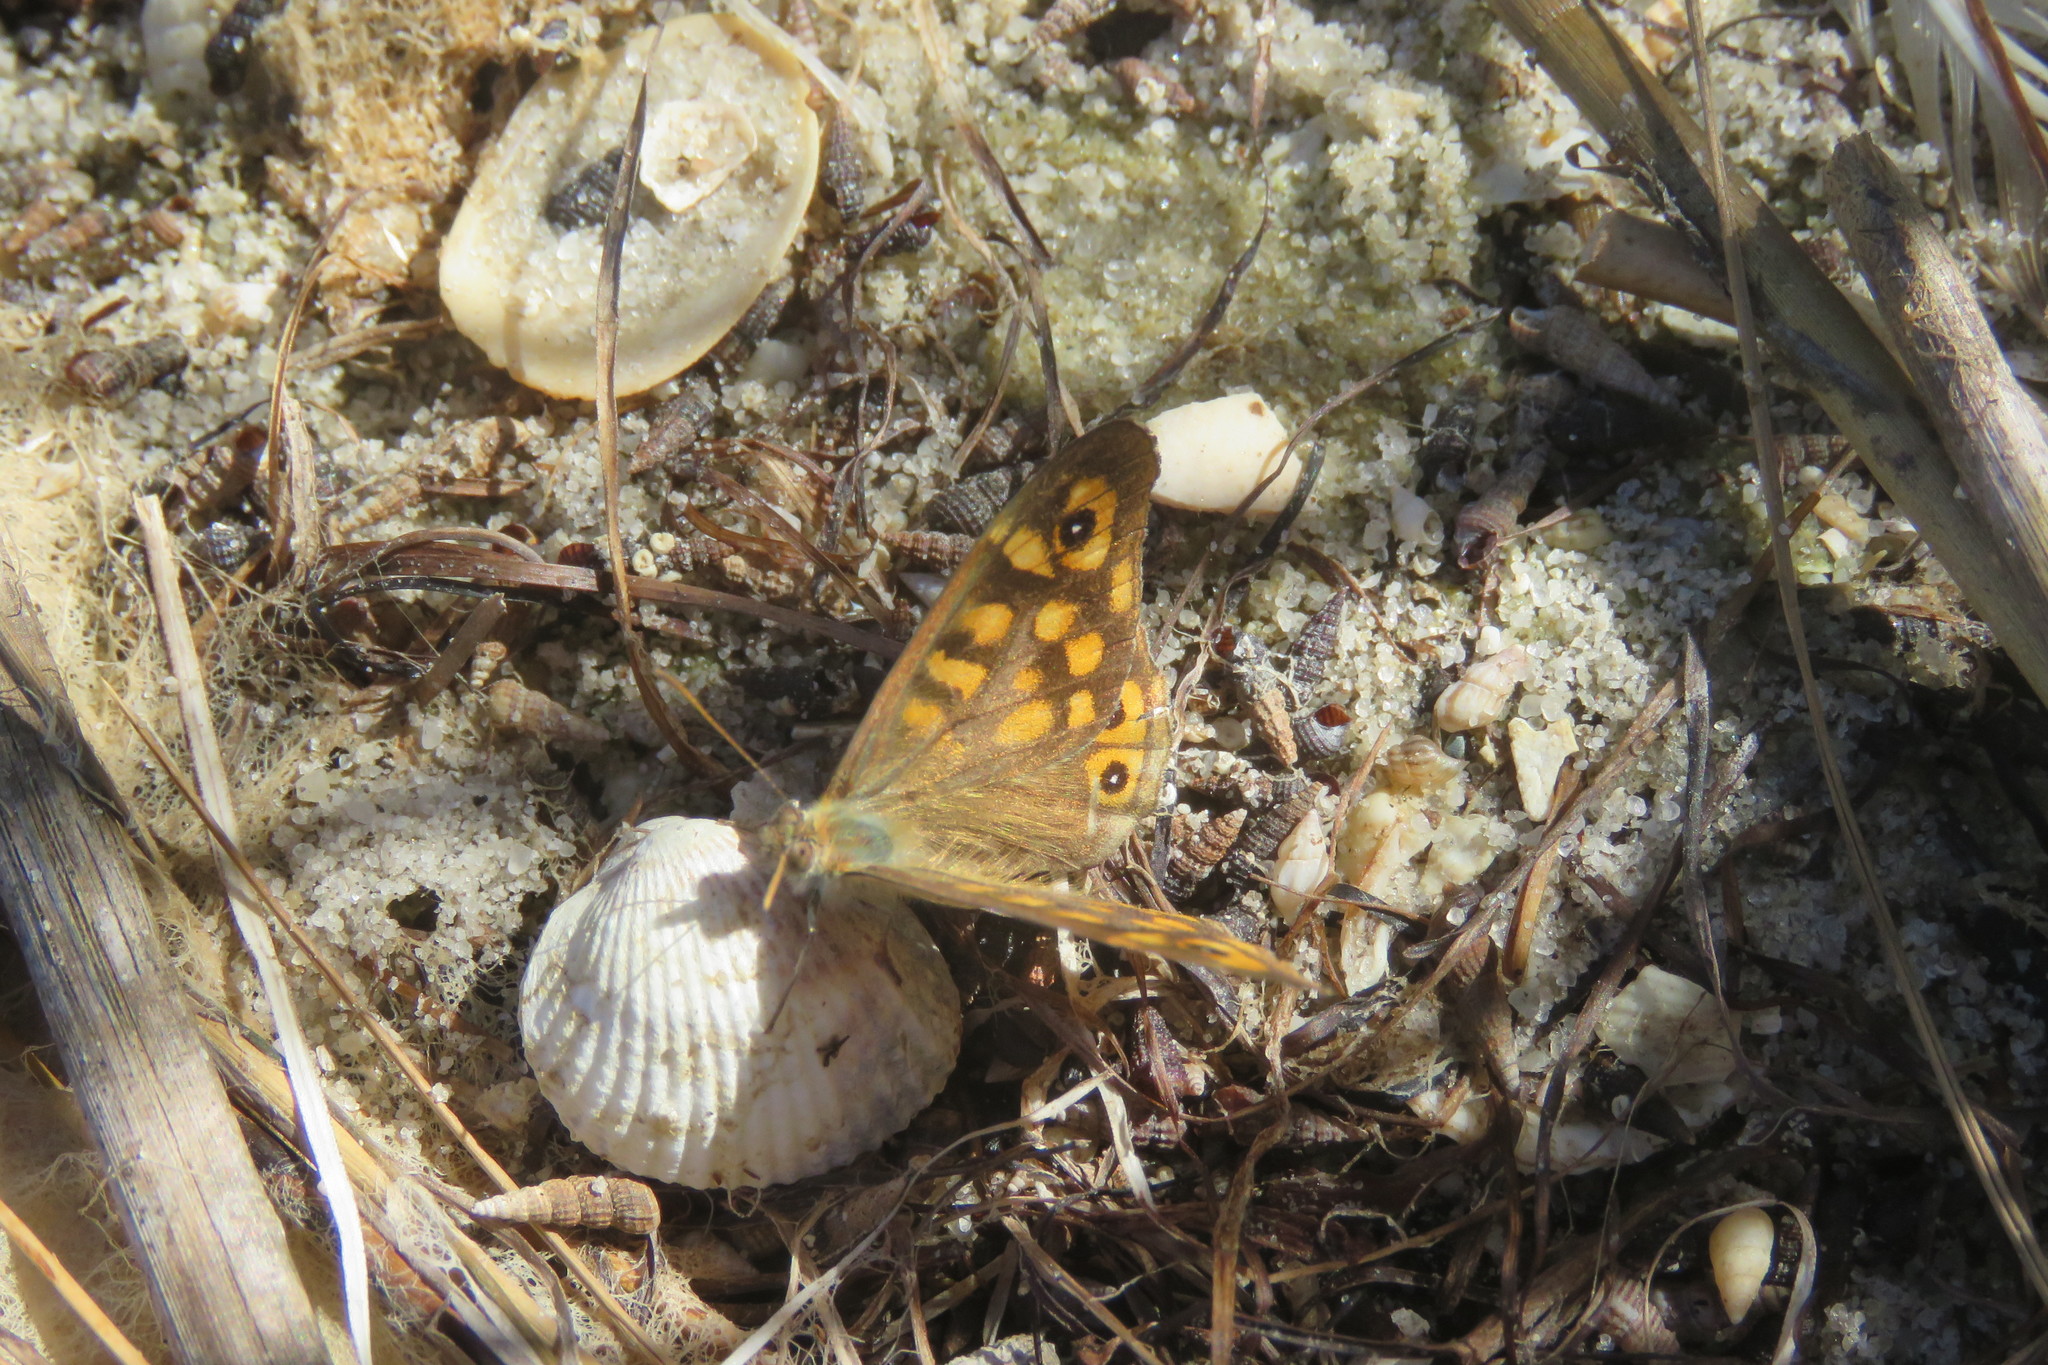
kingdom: Animalia
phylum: Arthropoda
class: Insecta
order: Lepidoptera
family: Nymphalidae
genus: Pararge
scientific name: Pararge aegeria
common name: Speckled wood
